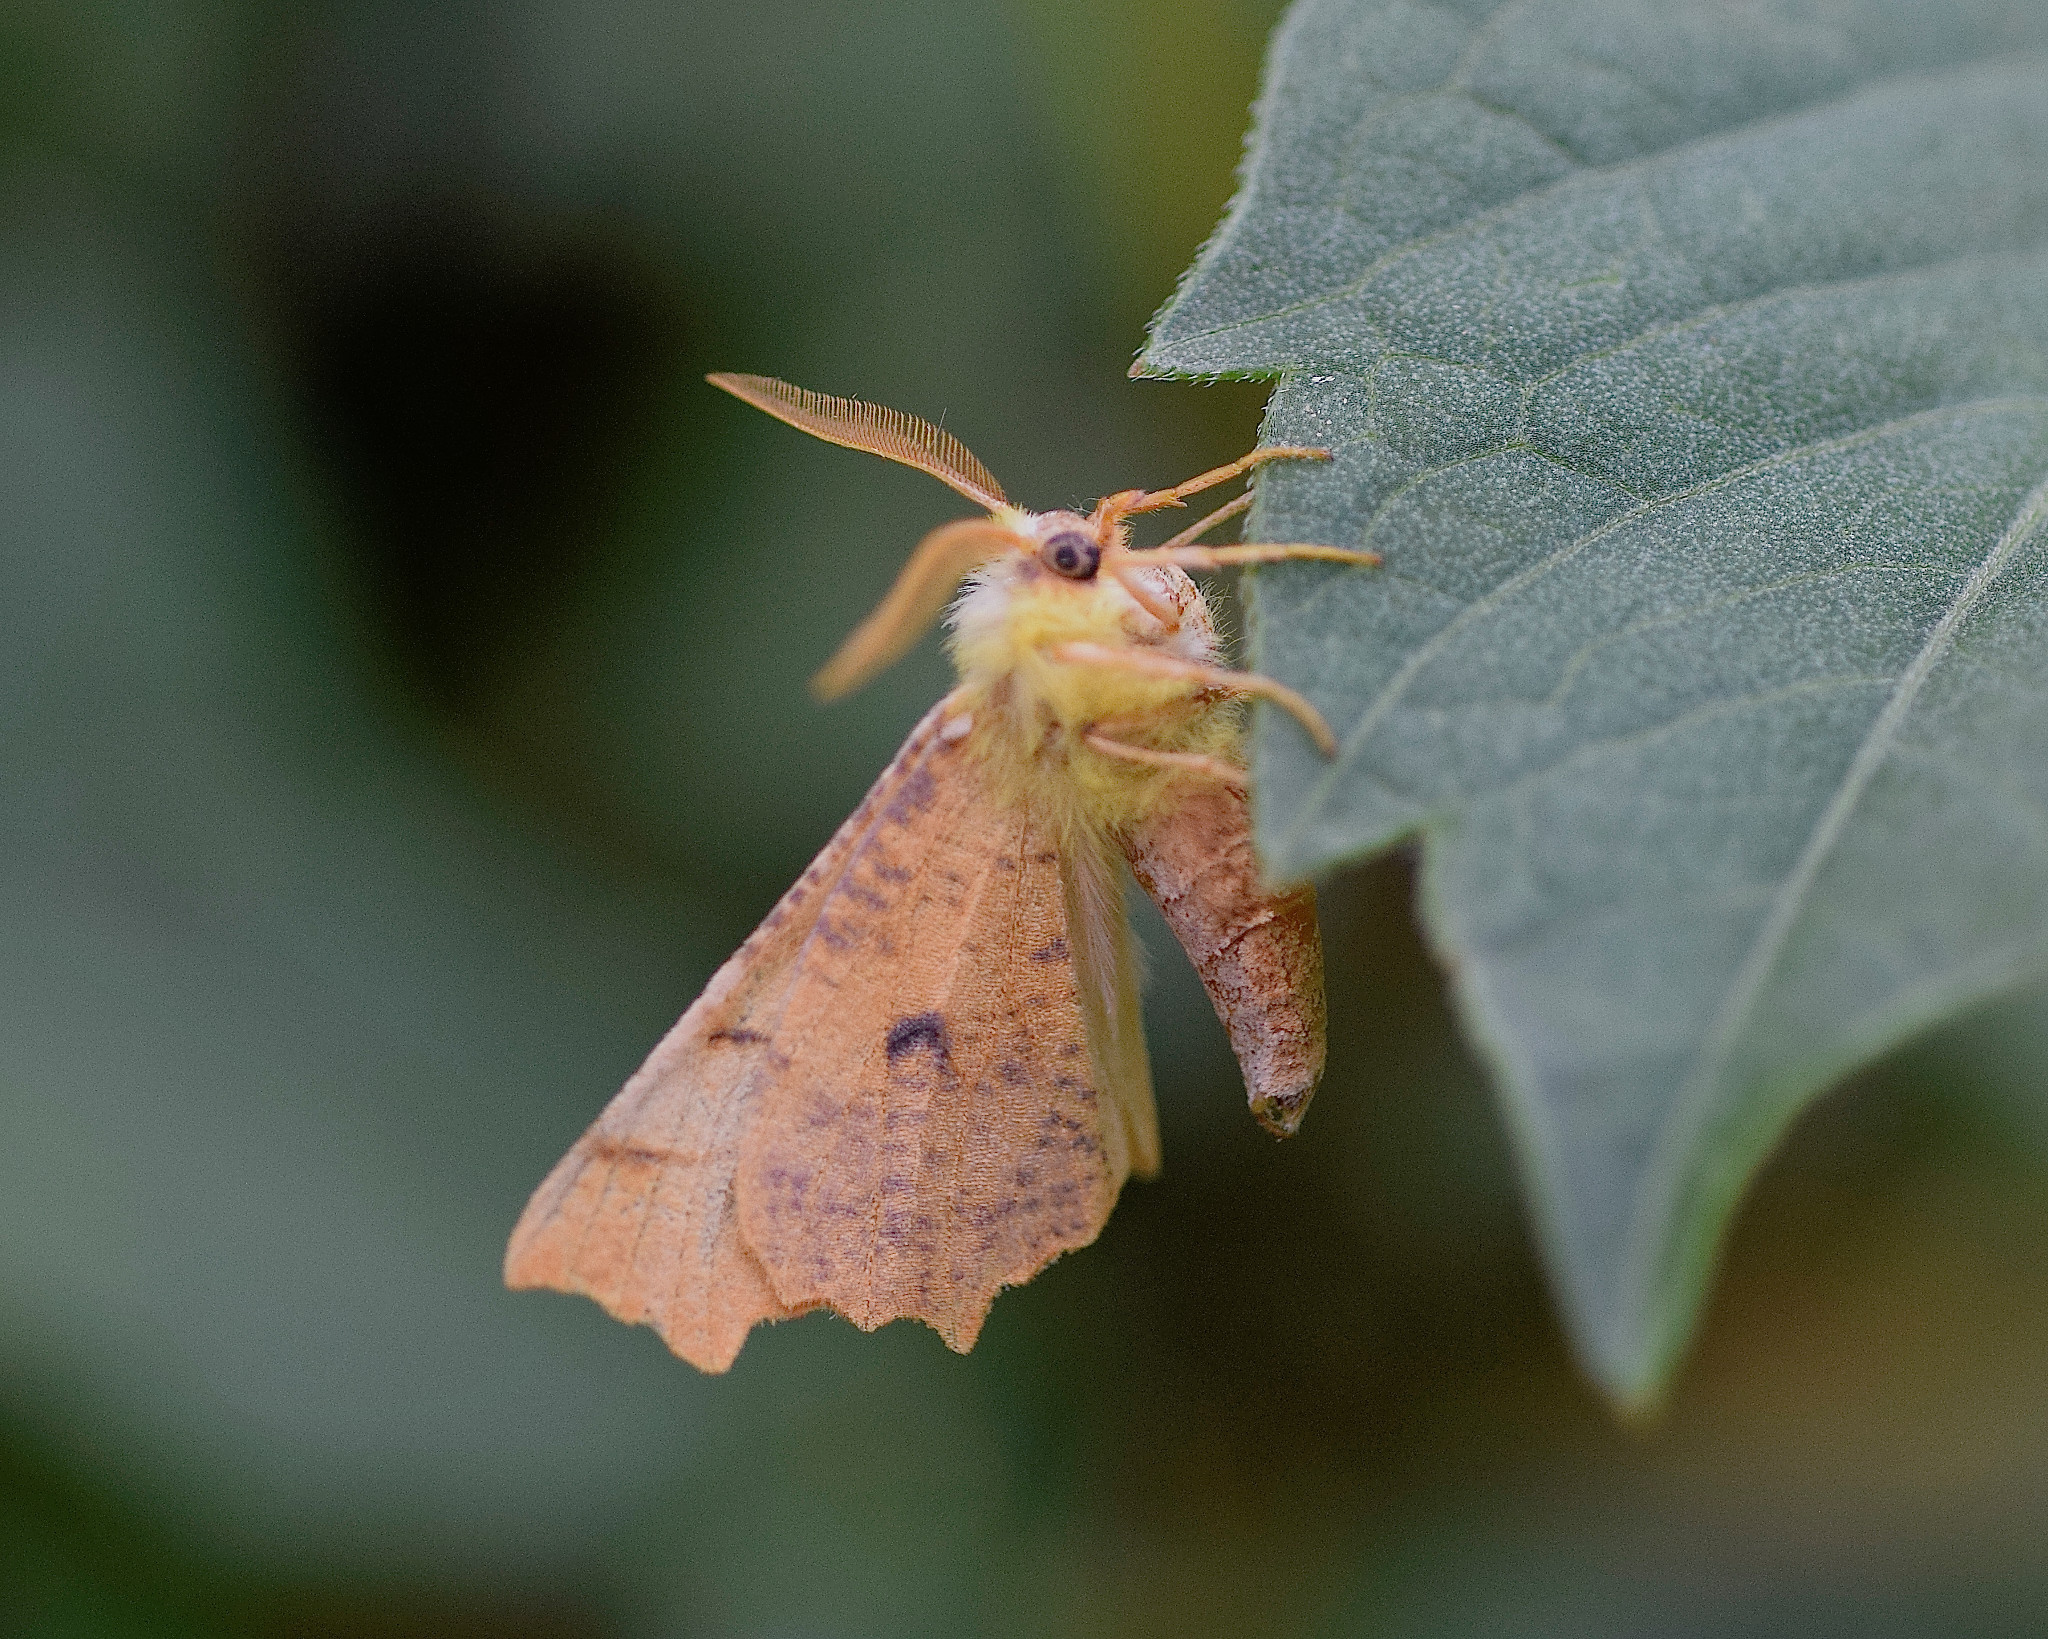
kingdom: Animalia
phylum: Arthropoda
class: Insecta
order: Lepidoptera
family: Geometridae
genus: Ennomos
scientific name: Ennomos alniaria
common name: Canary-shouldered thorn
